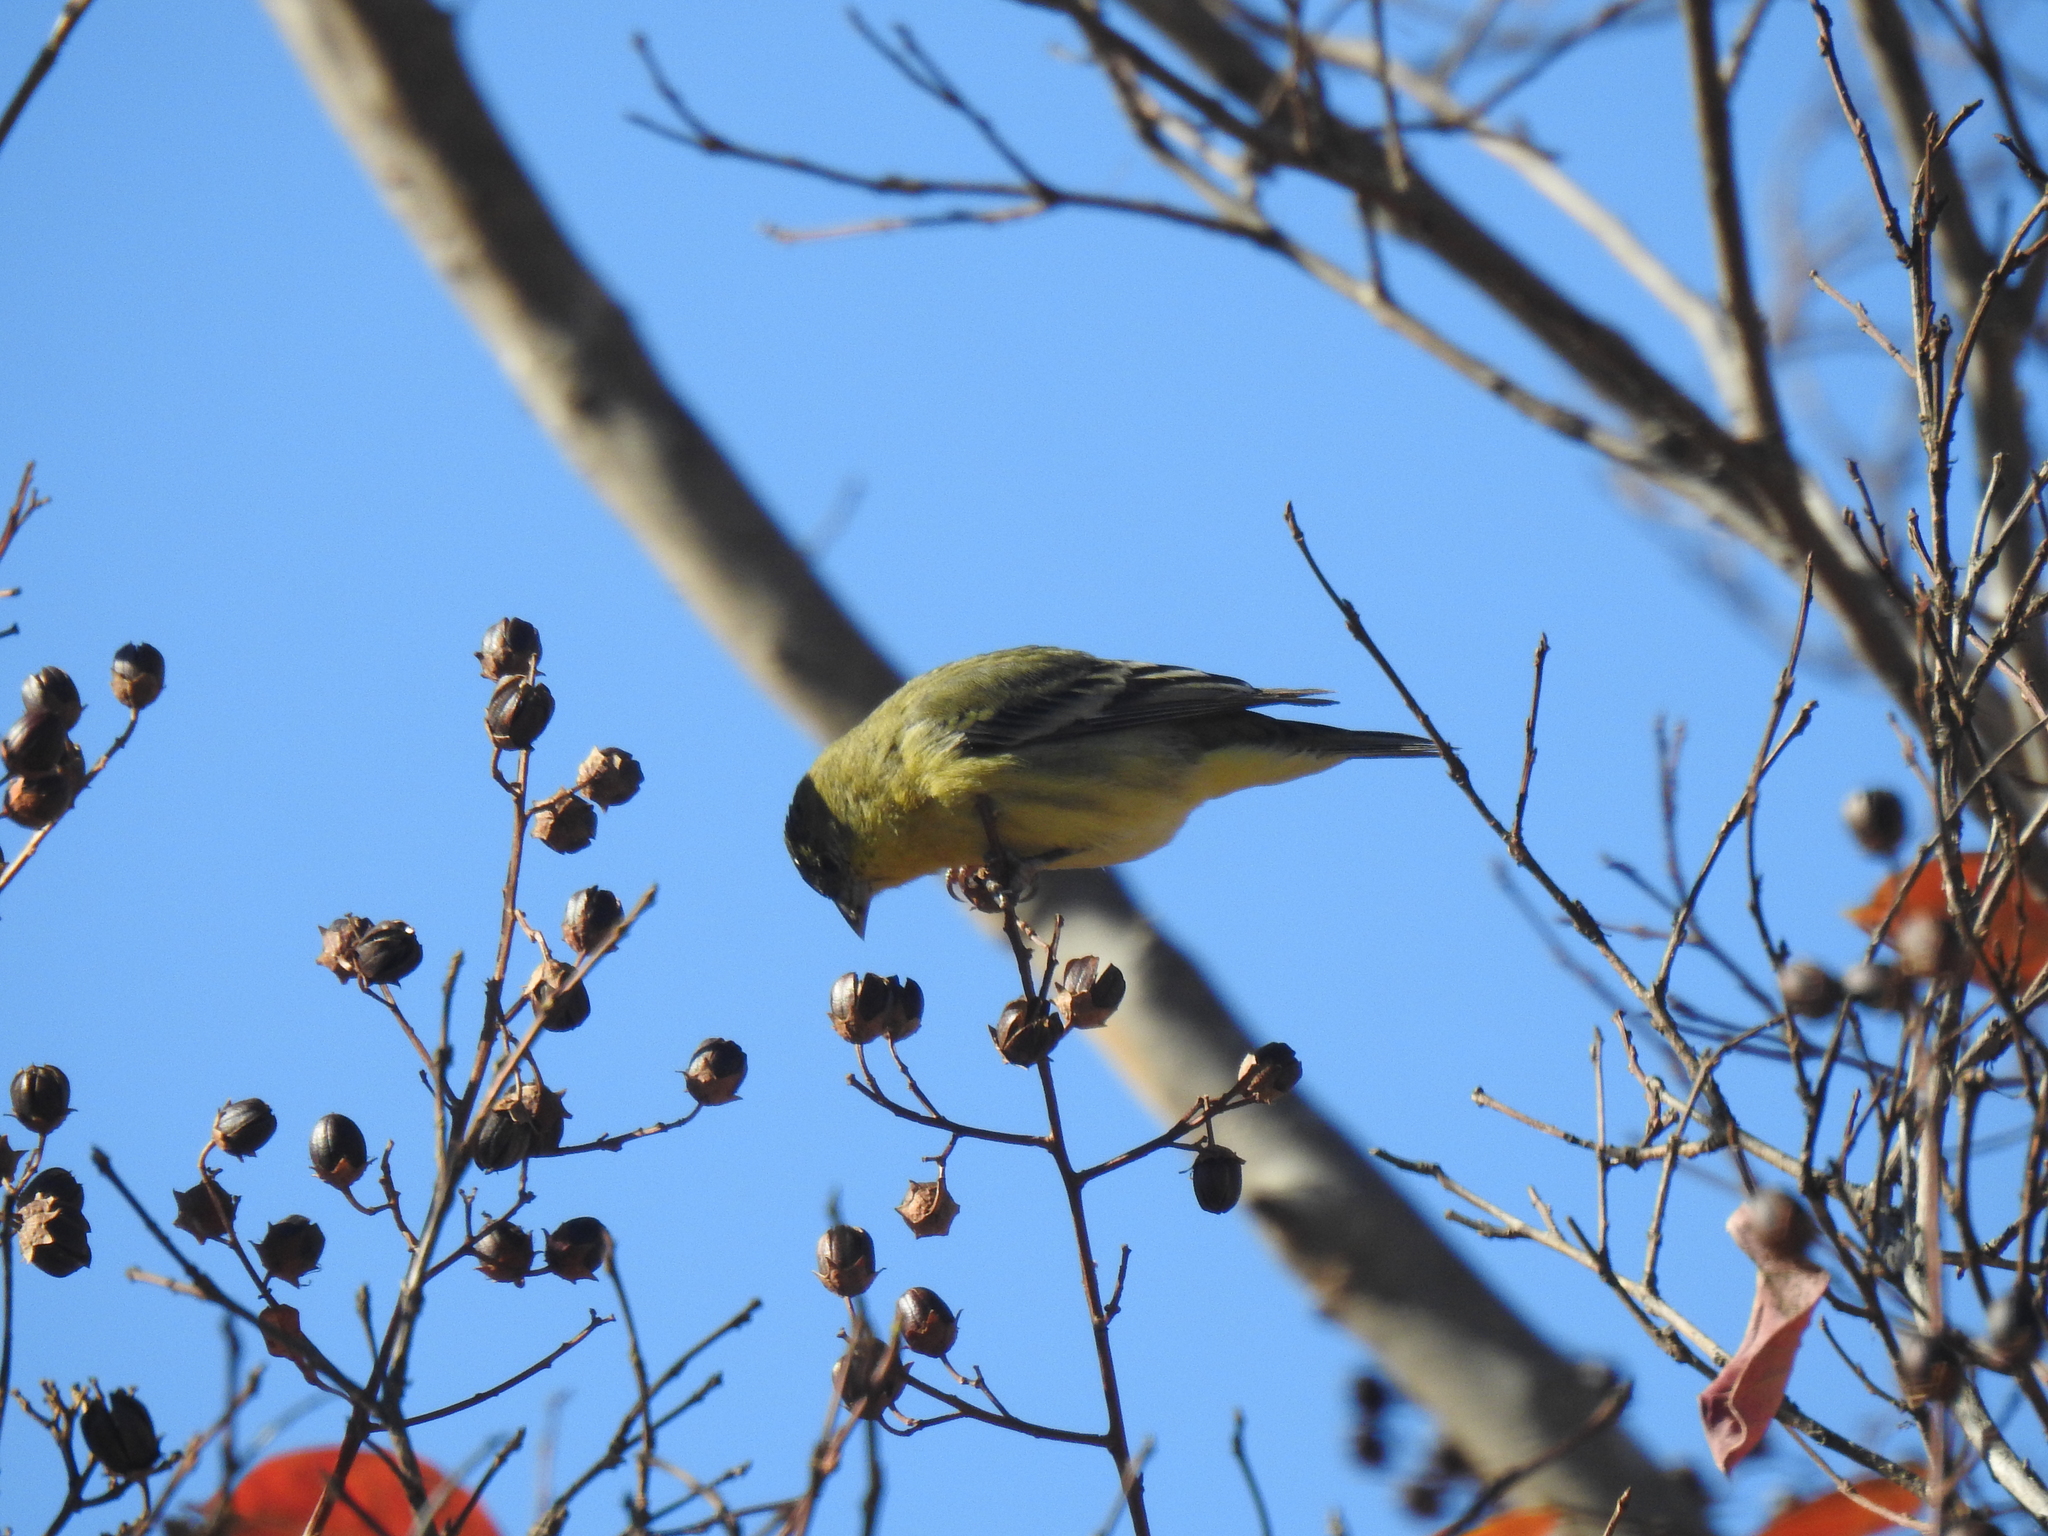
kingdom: Animalia
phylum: Chordata
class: Aves
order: Passeriformes
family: Fringillidae
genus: Spinus
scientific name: Spinus psaltria
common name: Lesser goldfinch
